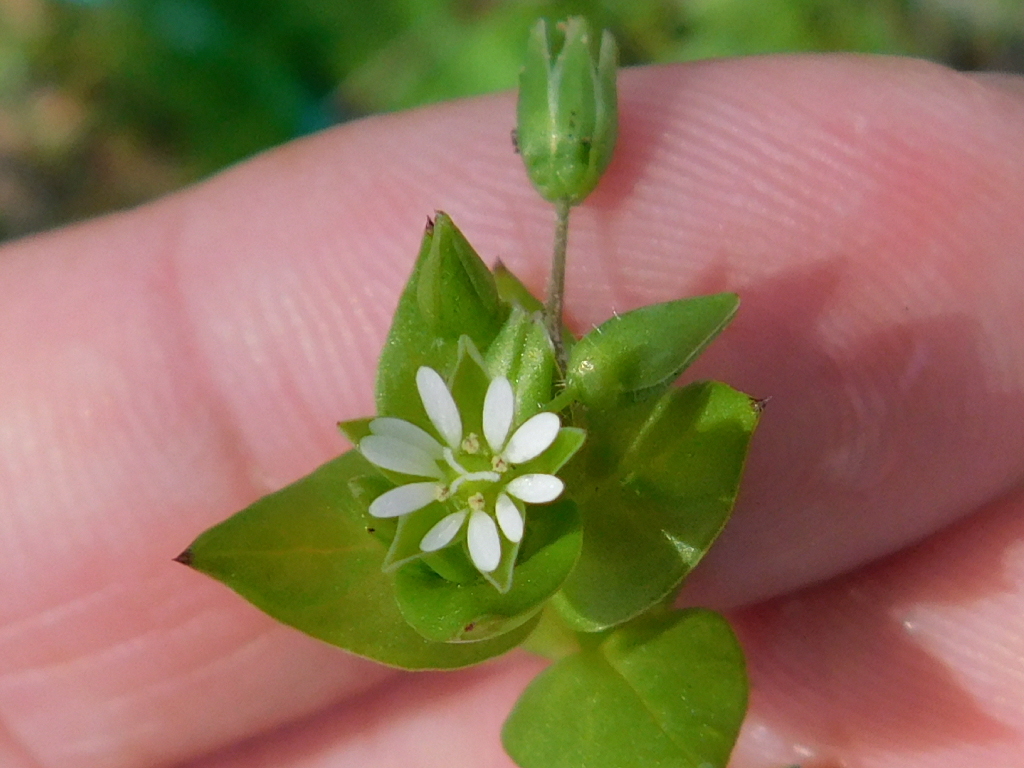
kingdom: Plantae
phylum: Tracheophyta
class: Magnoliopsida
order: Caryophyllales
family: Caryophyllaceae
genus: Stellaria
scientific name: Stellaria media
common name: Common chickweed
